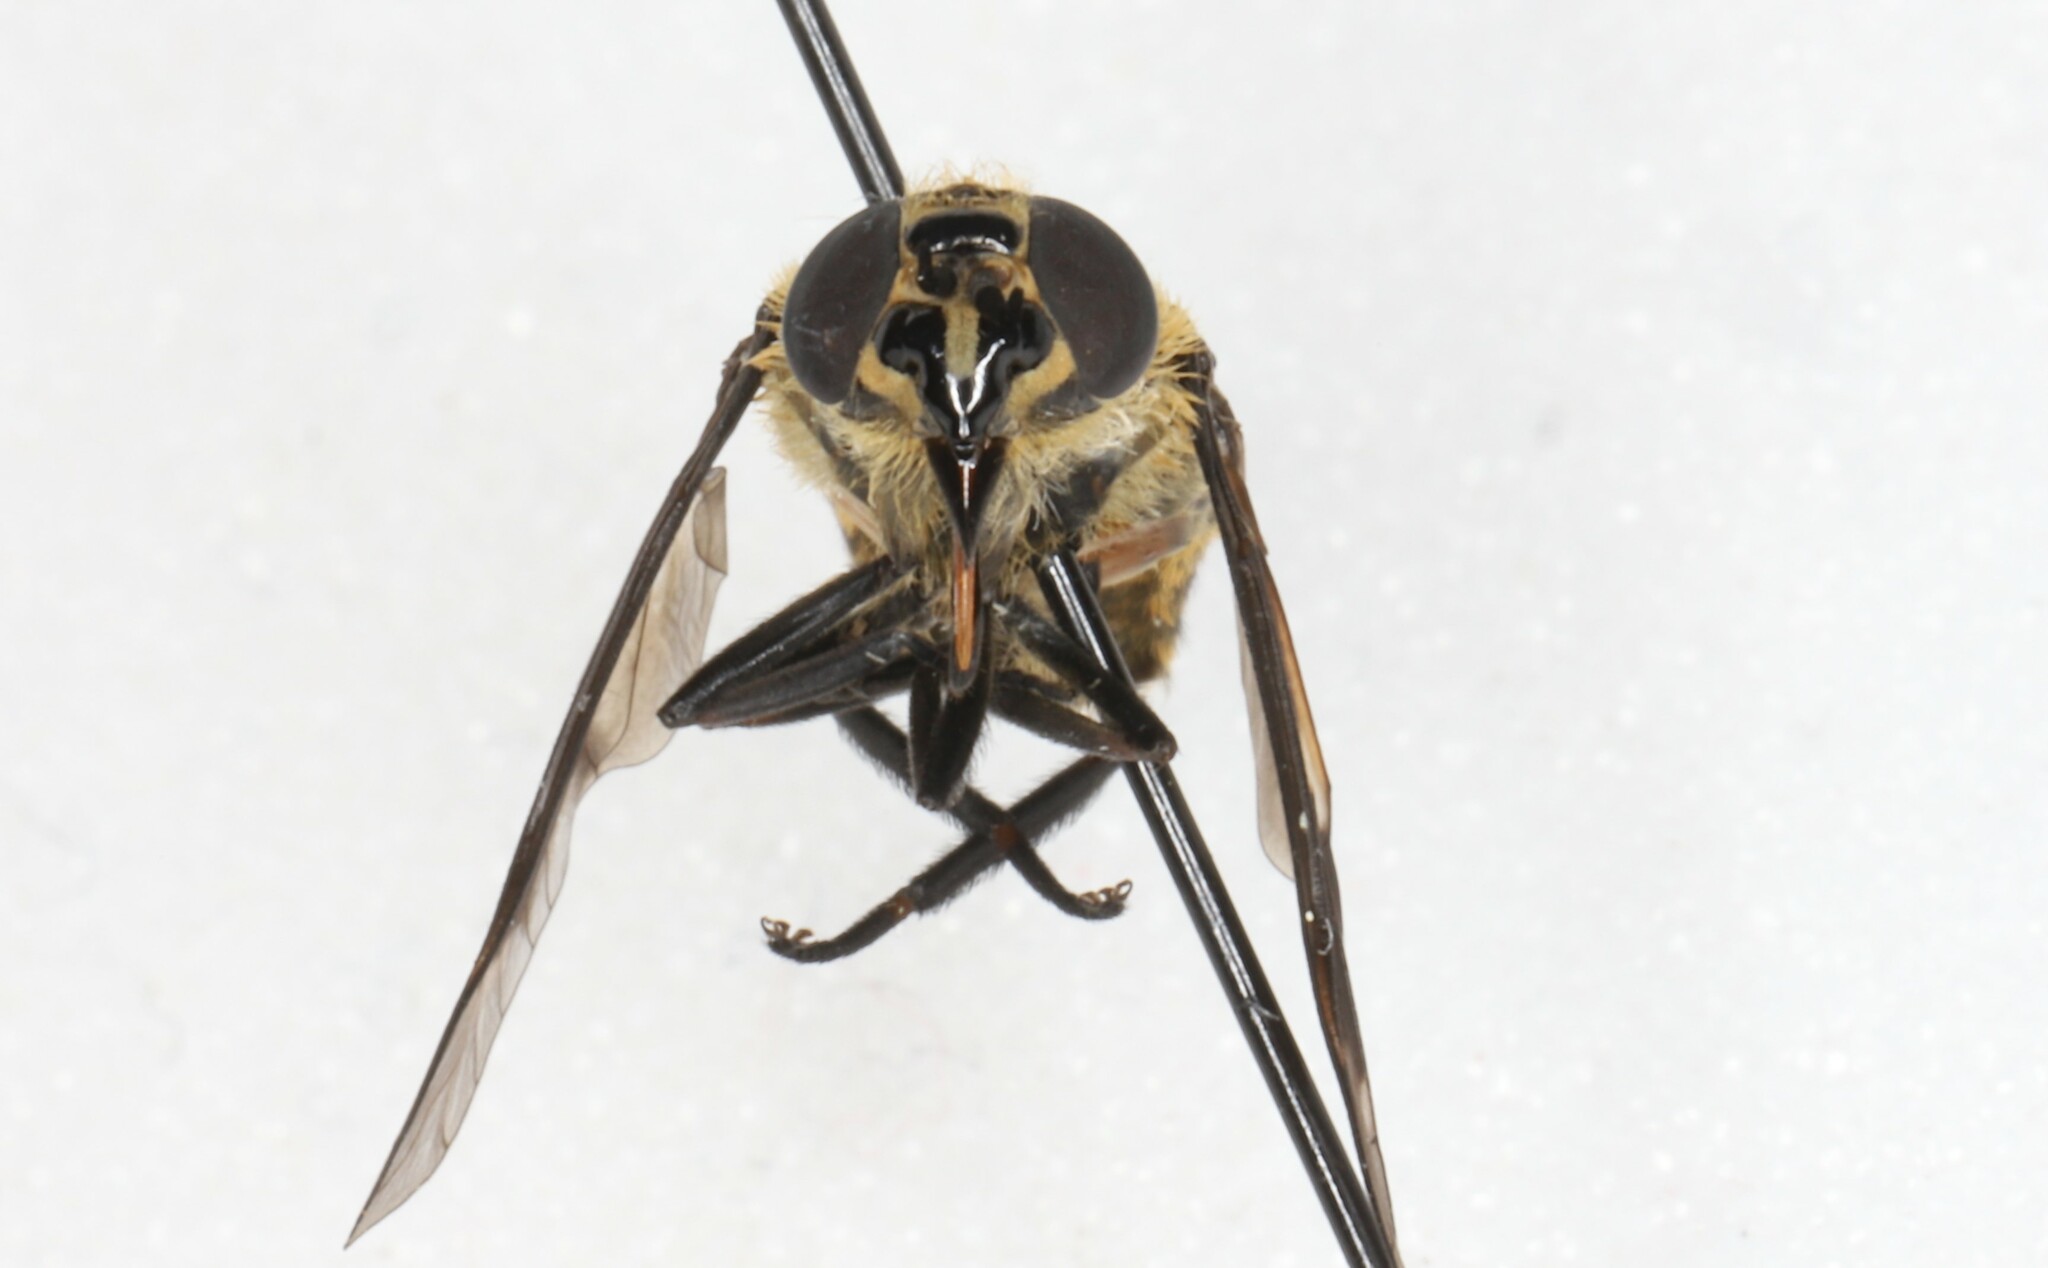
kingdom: Animalia
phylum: Arthropoda
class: Insecta
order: Diptera
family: Tabanidae
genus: Chrysops
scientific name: Chrysops excitans
